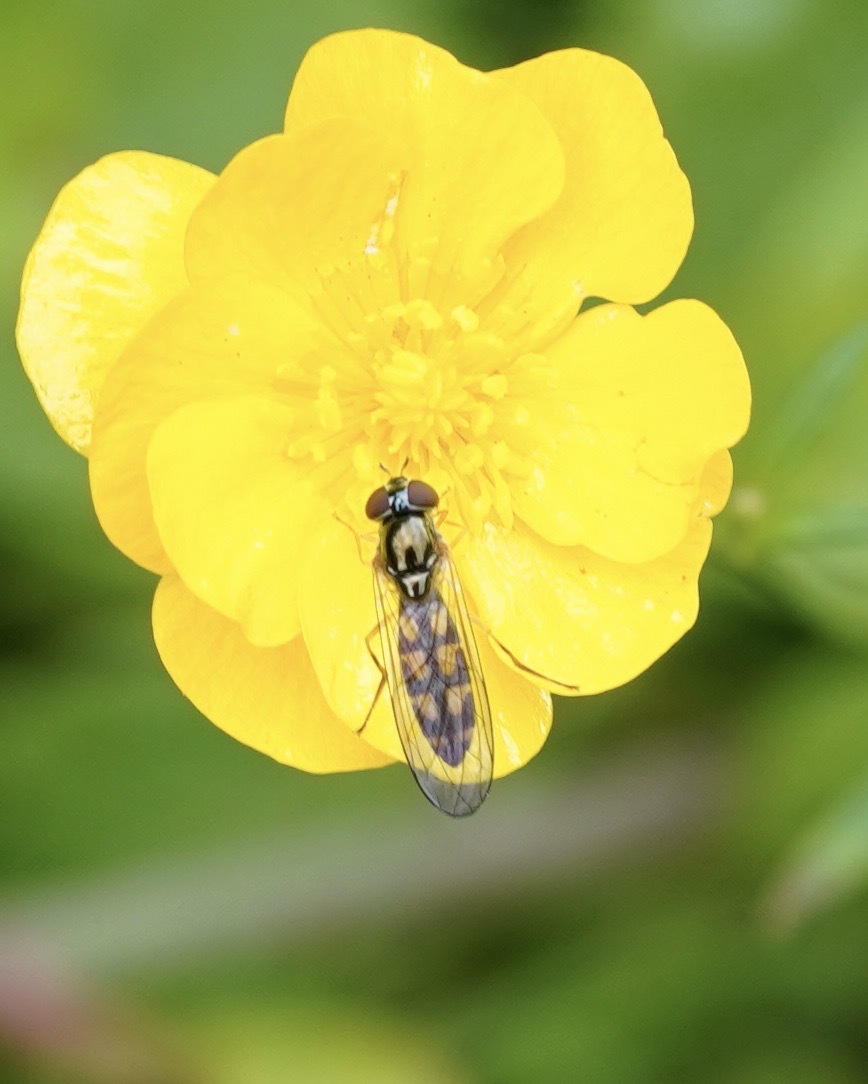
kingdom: Animalia
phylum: Arthropoda
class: Insecta
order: Diptera
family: Syrphidae
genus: Melanostoma
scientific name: Melanostoma
